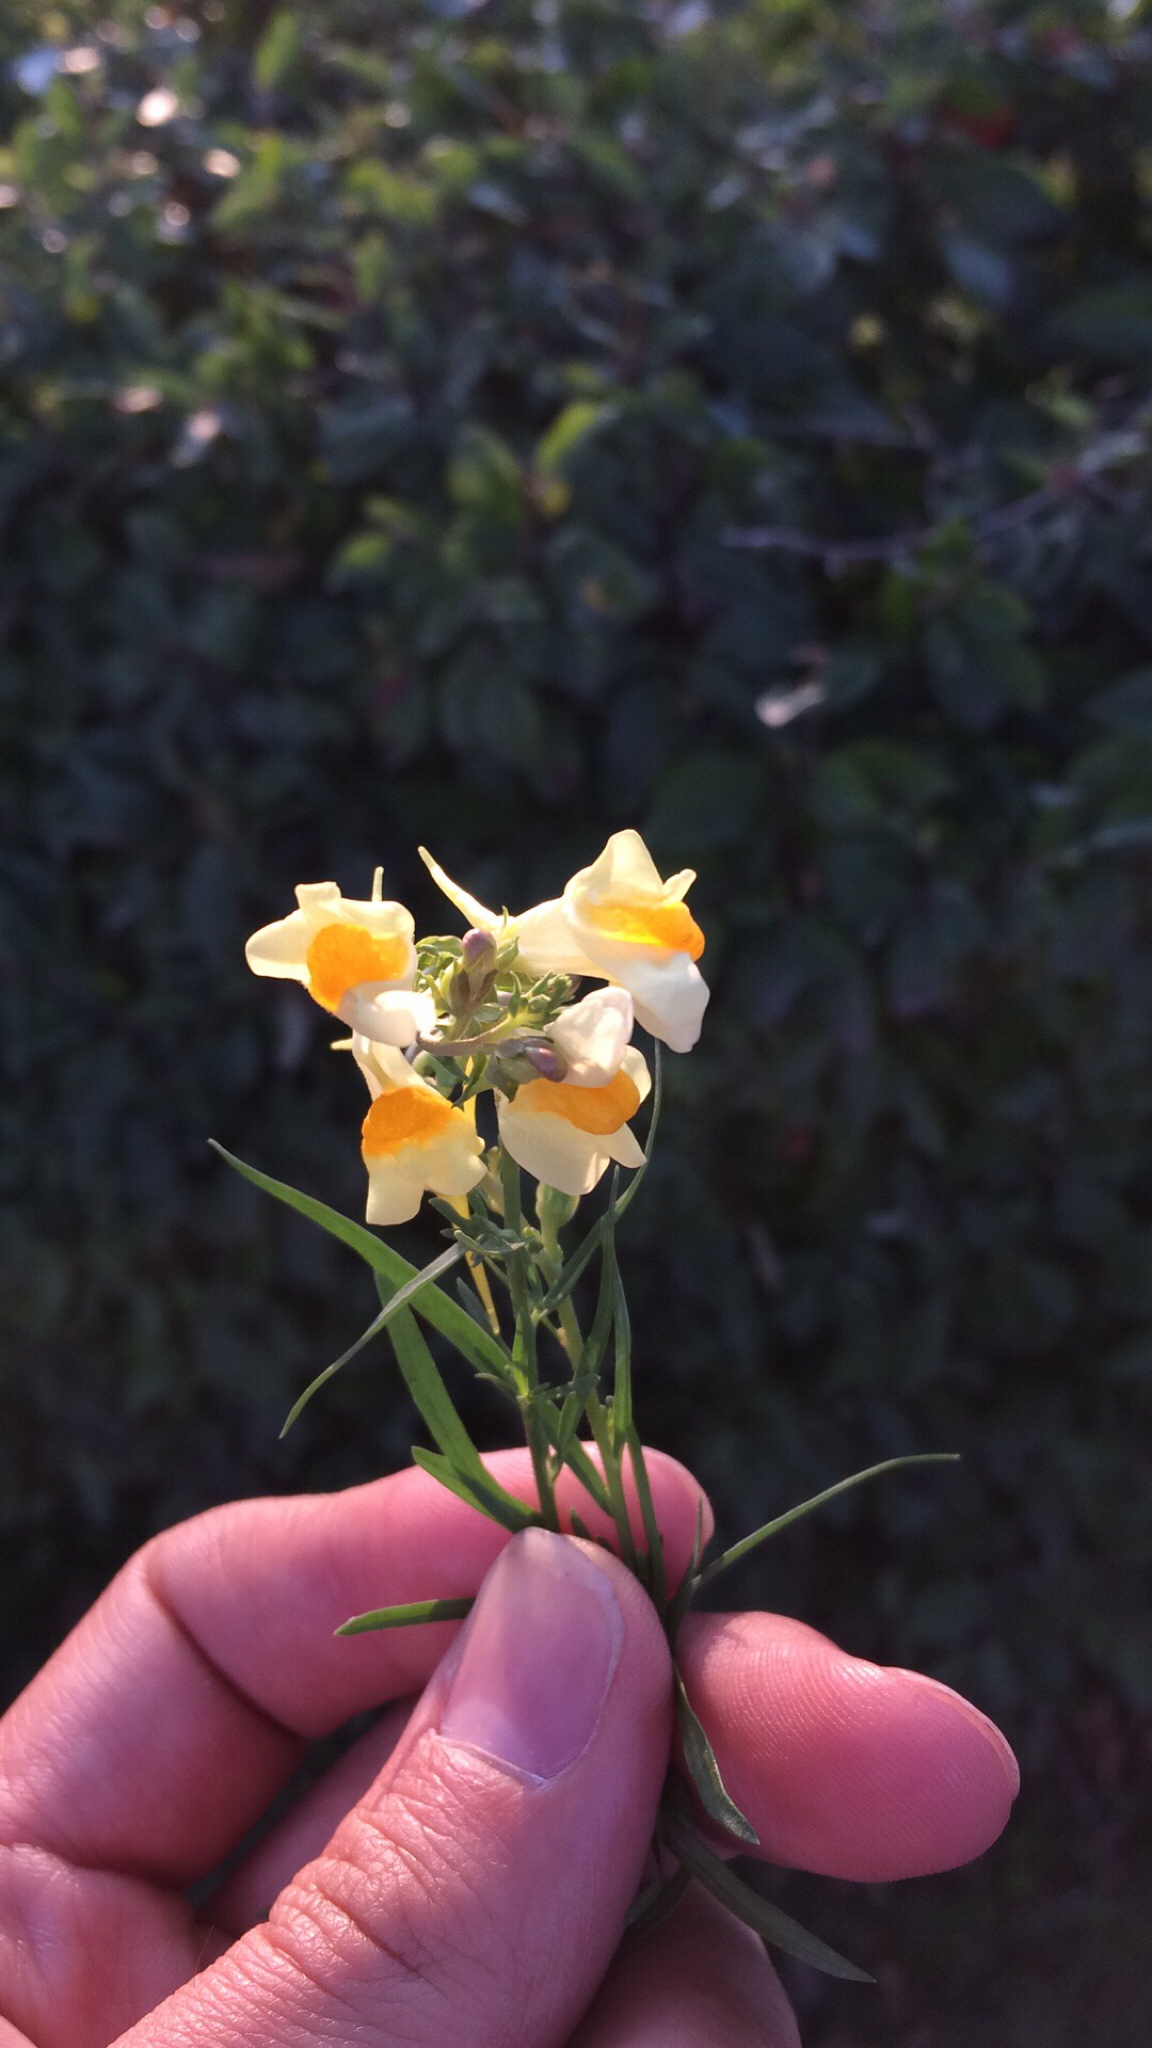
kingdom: Plantae
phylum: Tracheophyta
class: Magnoliopsida
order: Lamiales
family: Plantaginaceae
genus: Linaria
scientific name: Linaria vulgaris
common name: Butter and eggs
